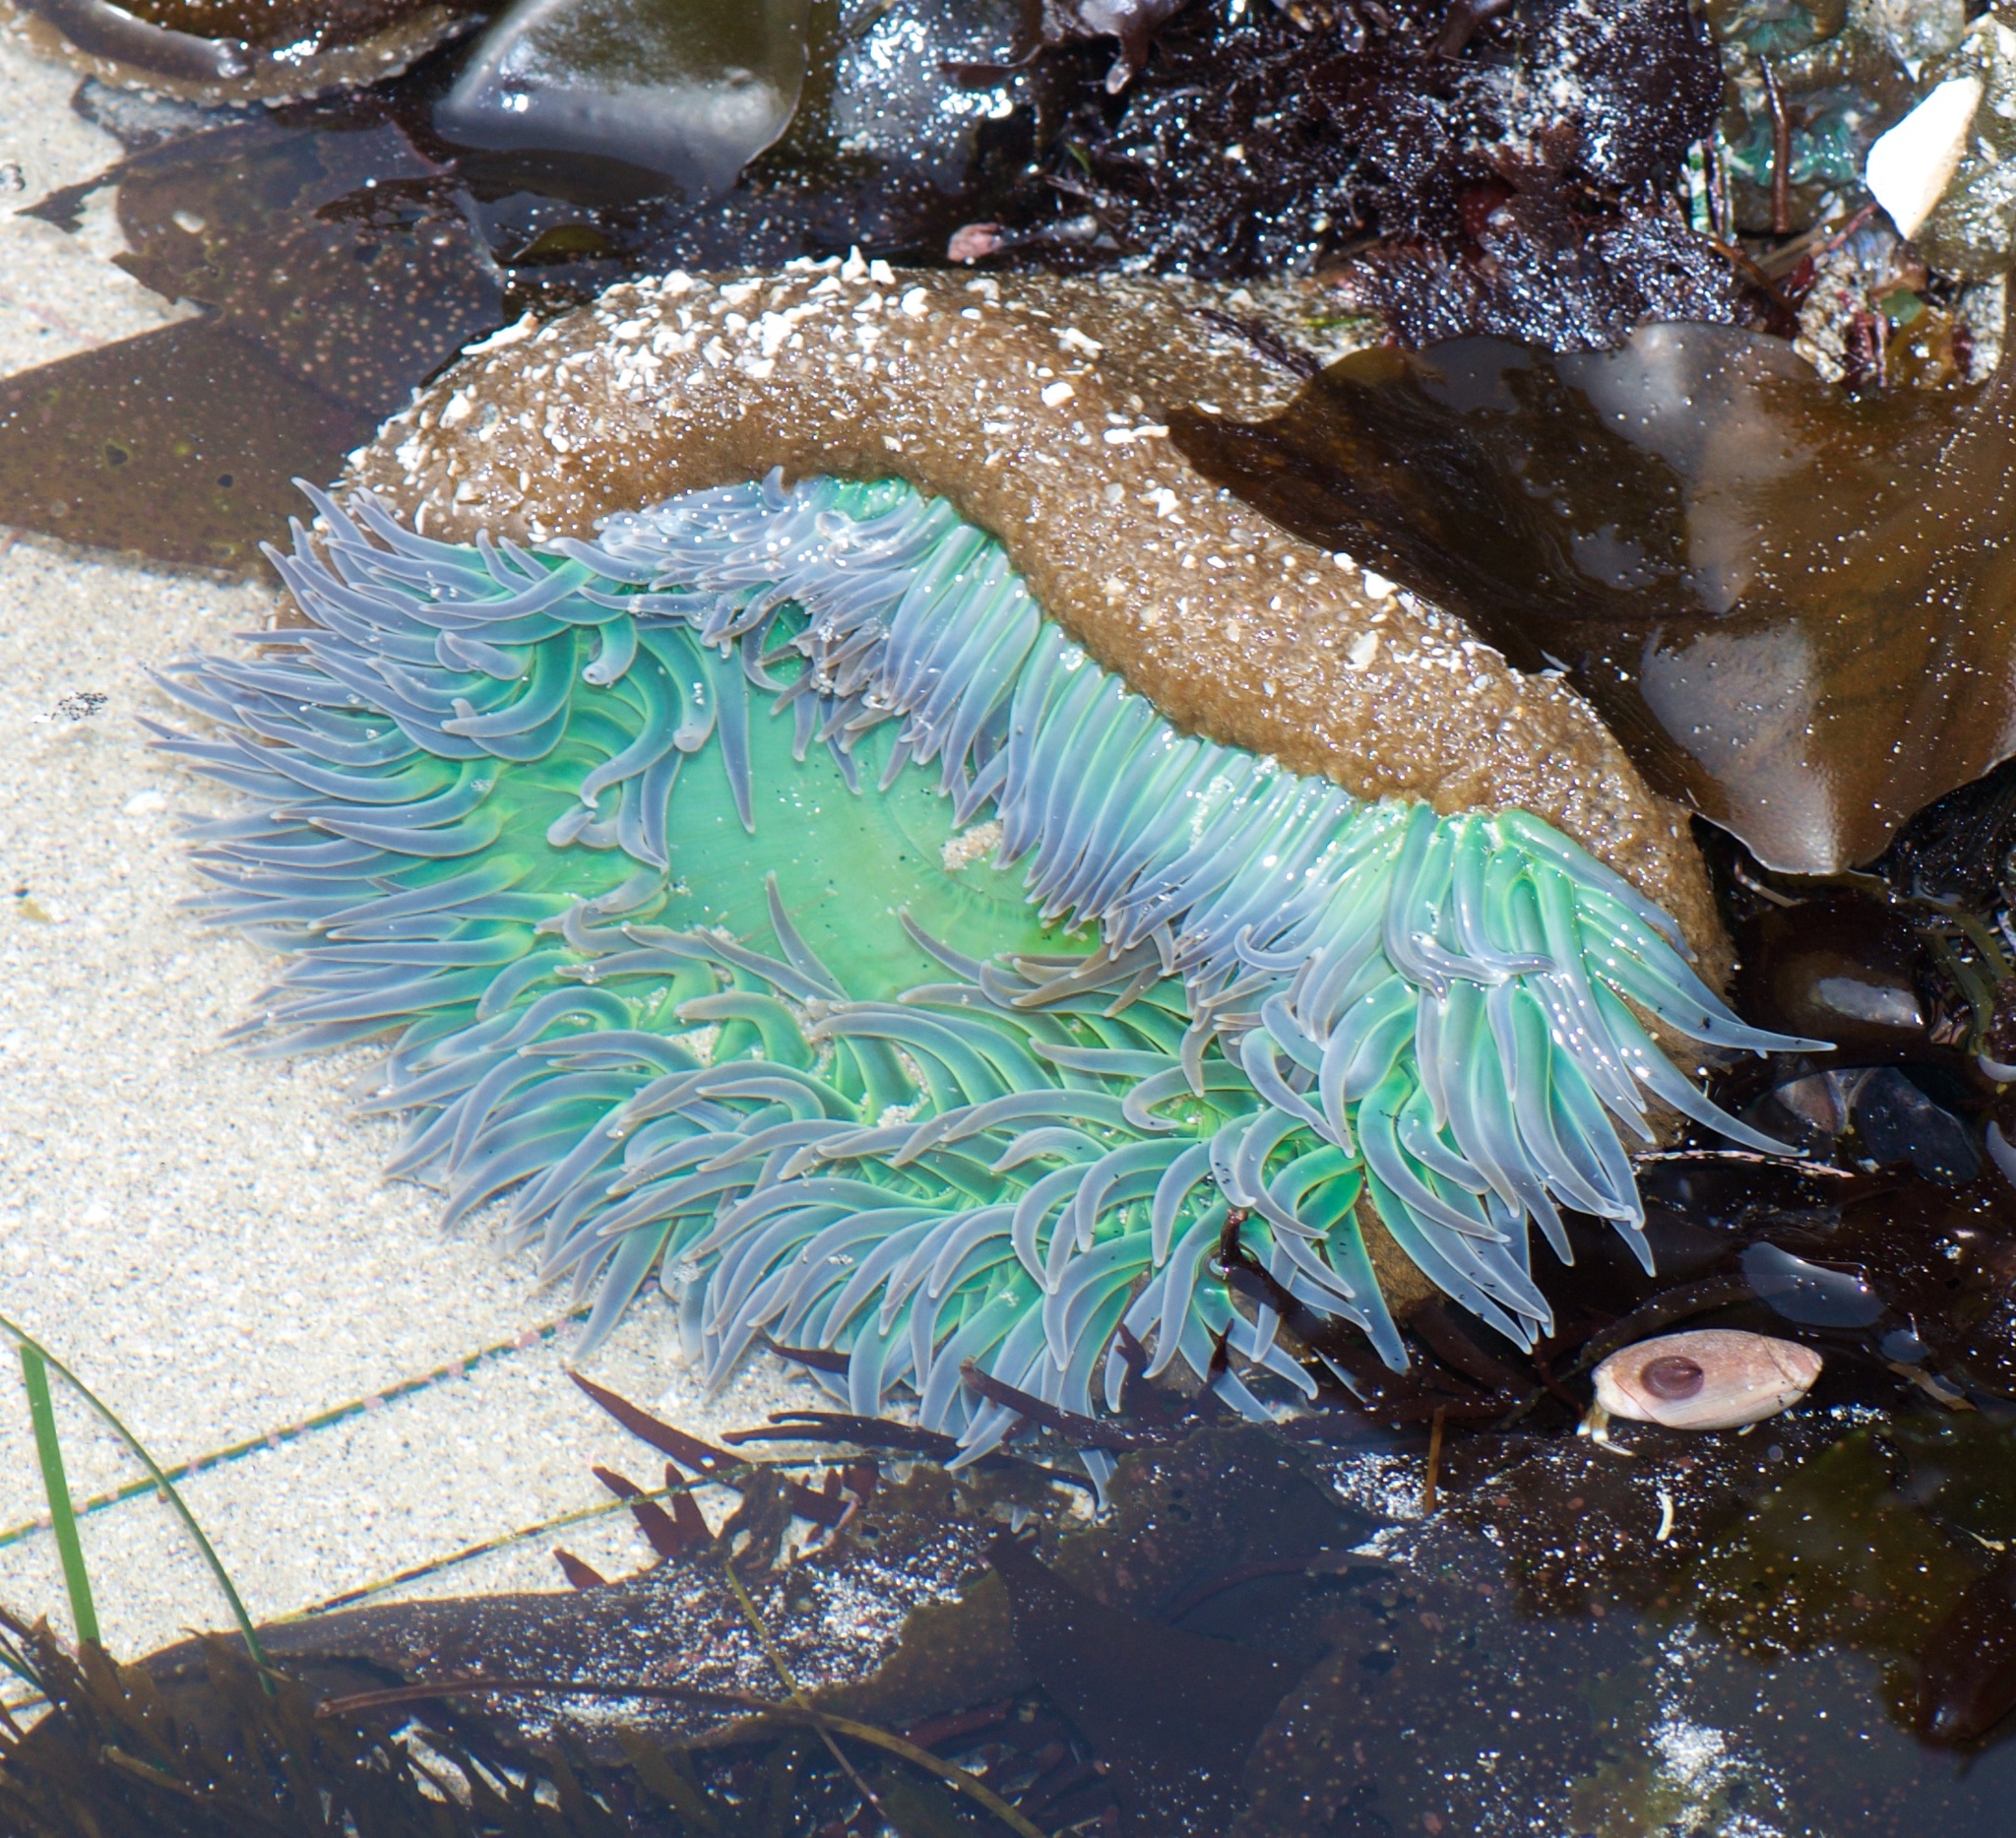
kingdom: Animalia
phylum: Cnidaria
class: Anthozoa
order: Actiniaria
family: Actiniidae
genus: Anthopleura
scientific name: Anthopleura xanthogrammica
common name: Giant green anemone
